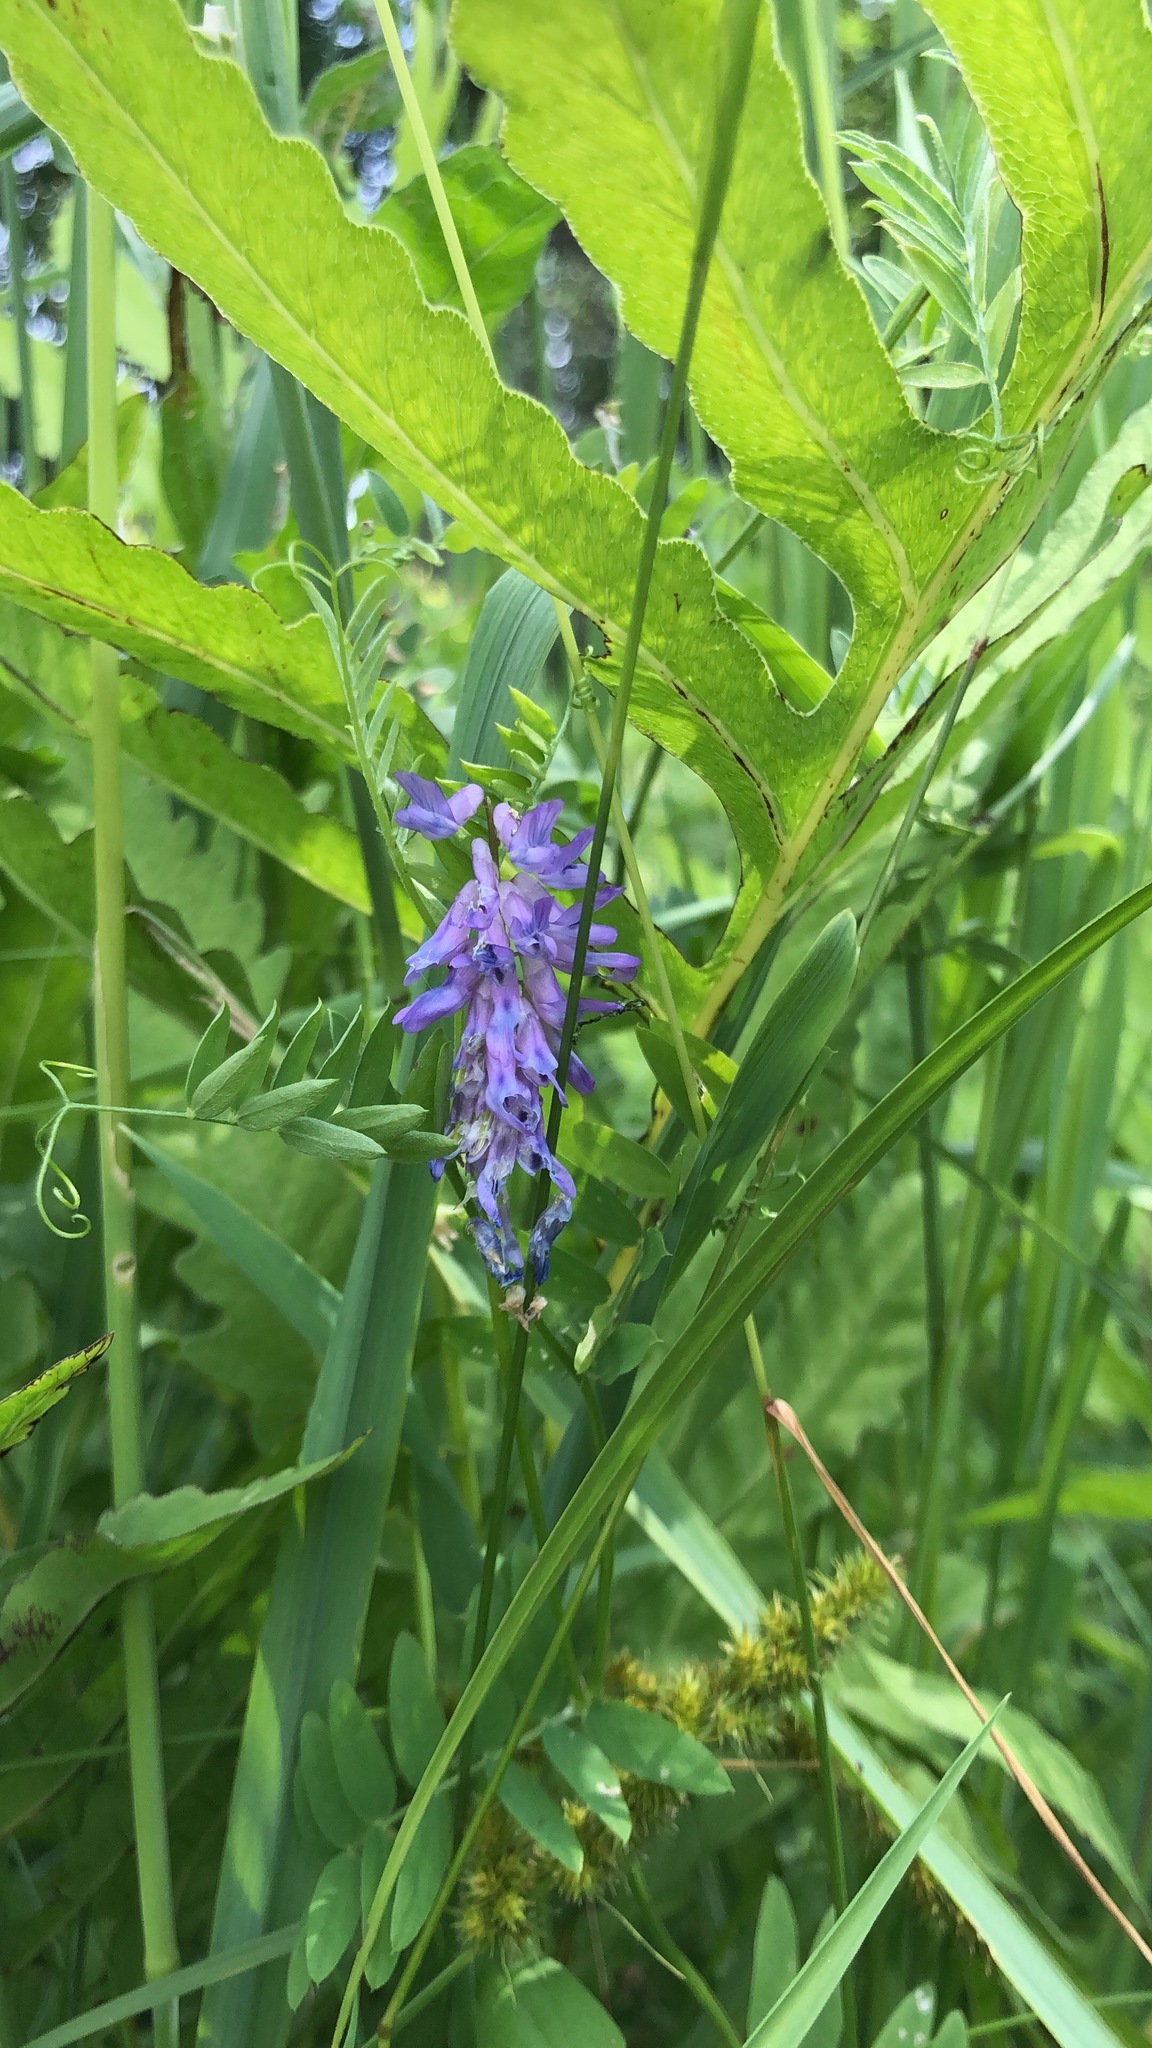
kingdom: Plantae
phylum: Tracheophyta
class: Magnoliopsida
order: Fabales
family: Fabaceae
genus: Vicia
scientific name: Vicia cracca
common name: Bird vetch
